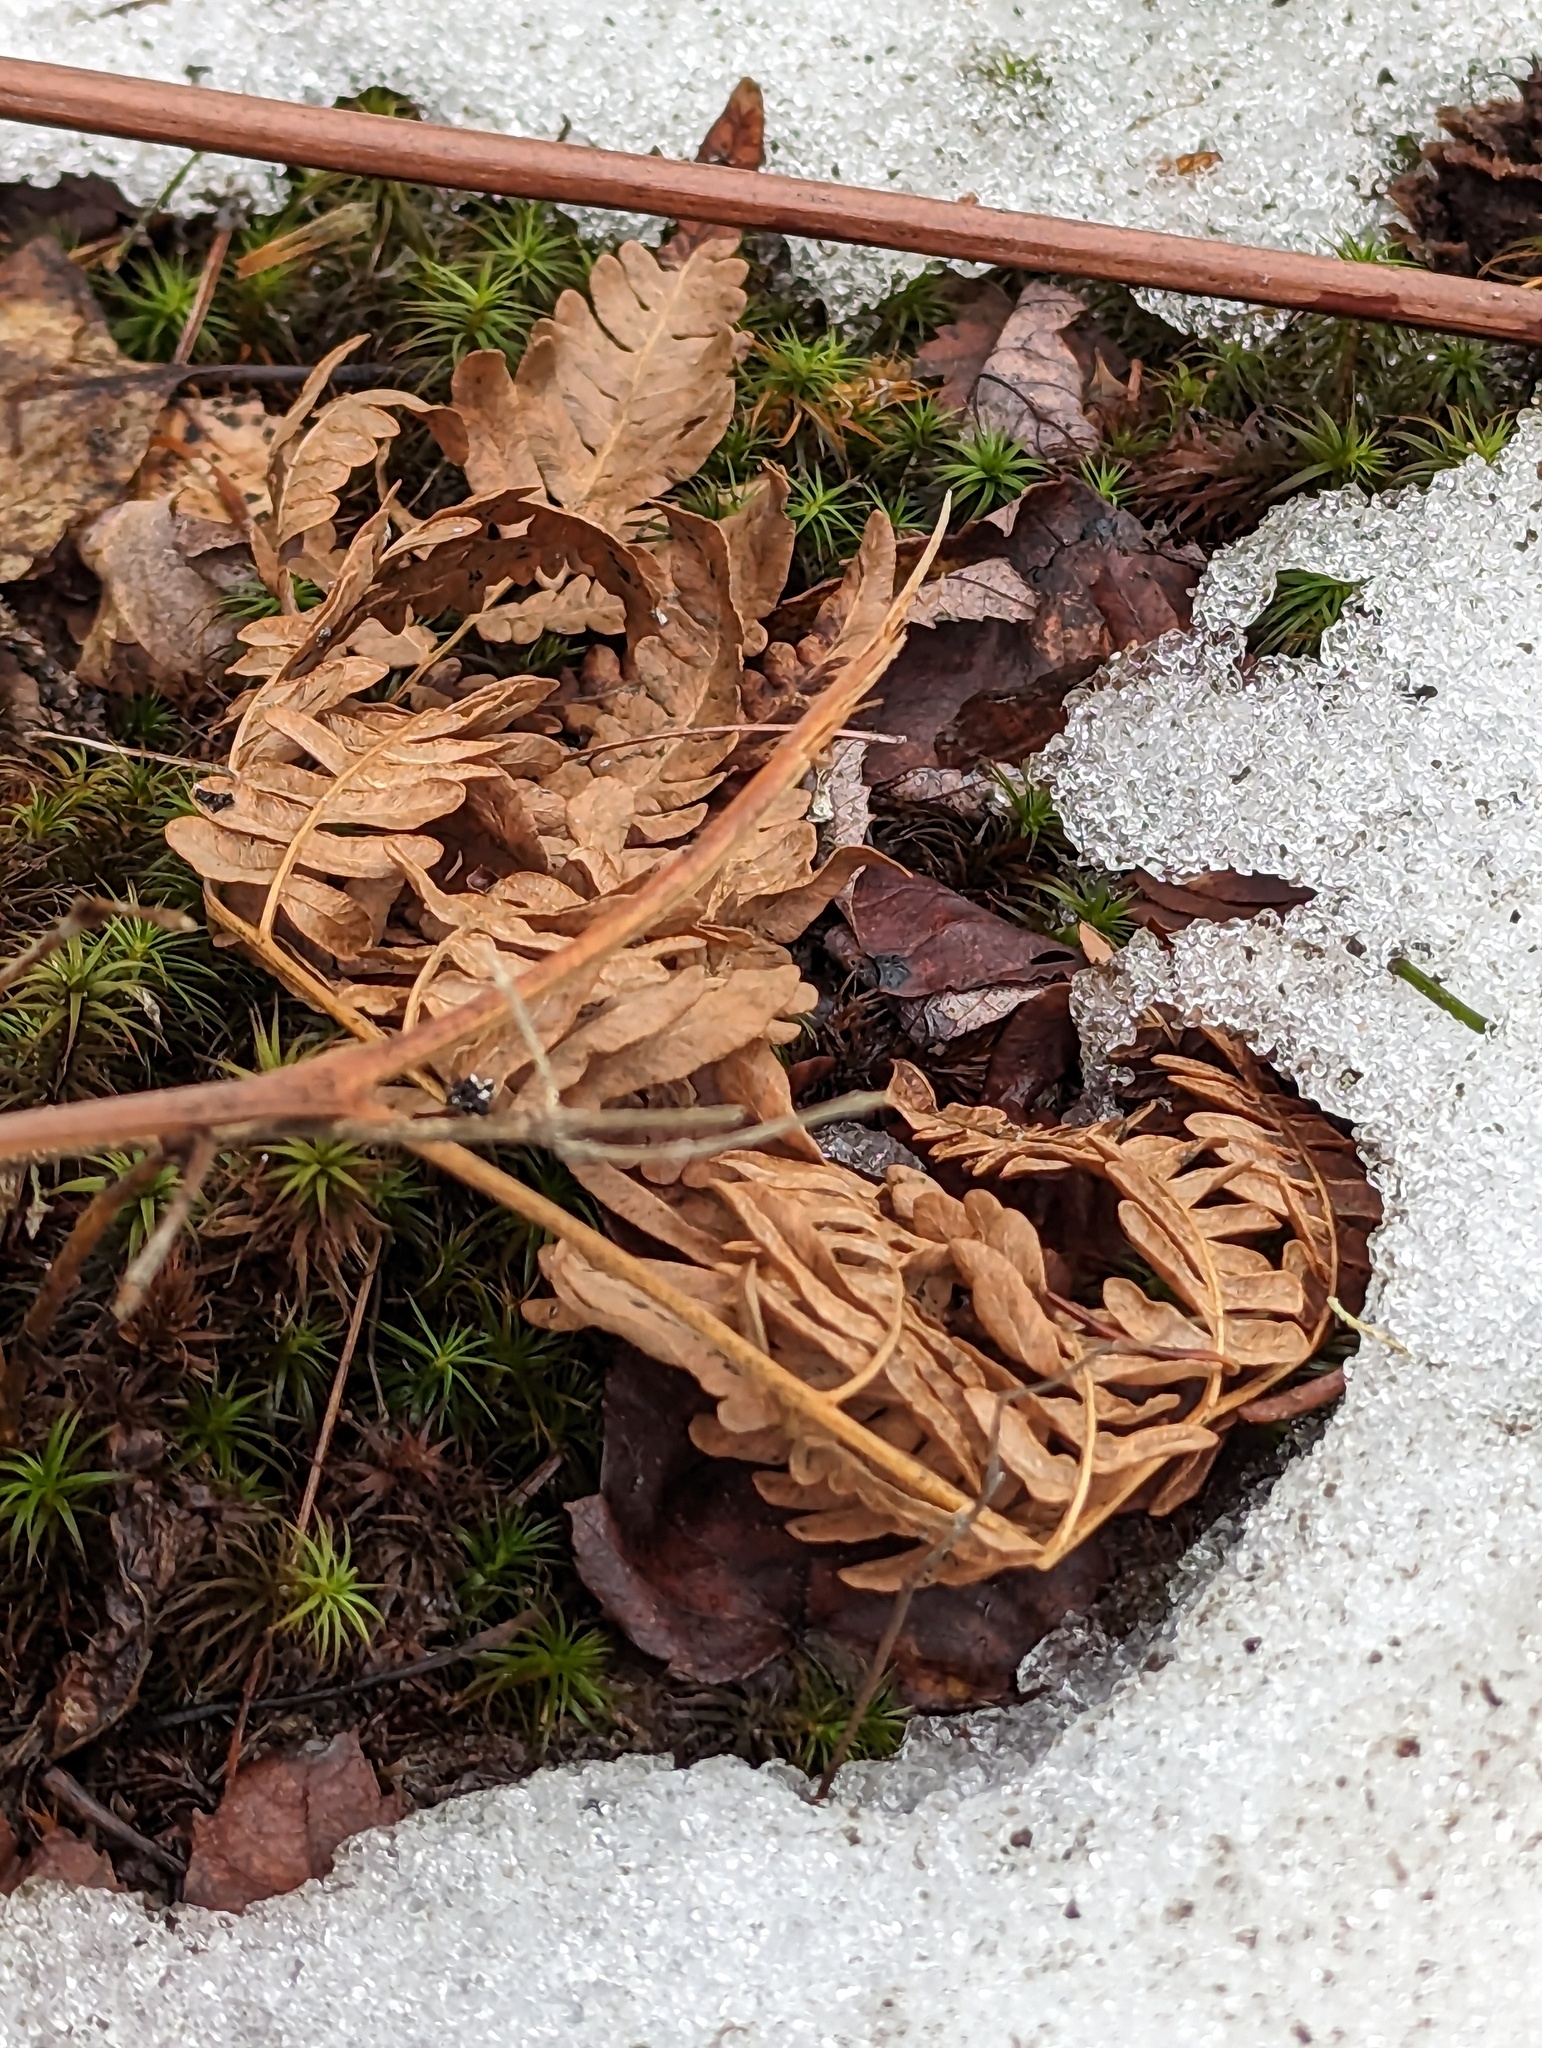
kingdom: Plantae
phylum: Tracheophyta
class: Polypodiopsida
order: Polypodiales
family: Dennstaedtiaceae
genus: Pteridium
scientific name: Pteridium aquilinum
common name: Bracken
